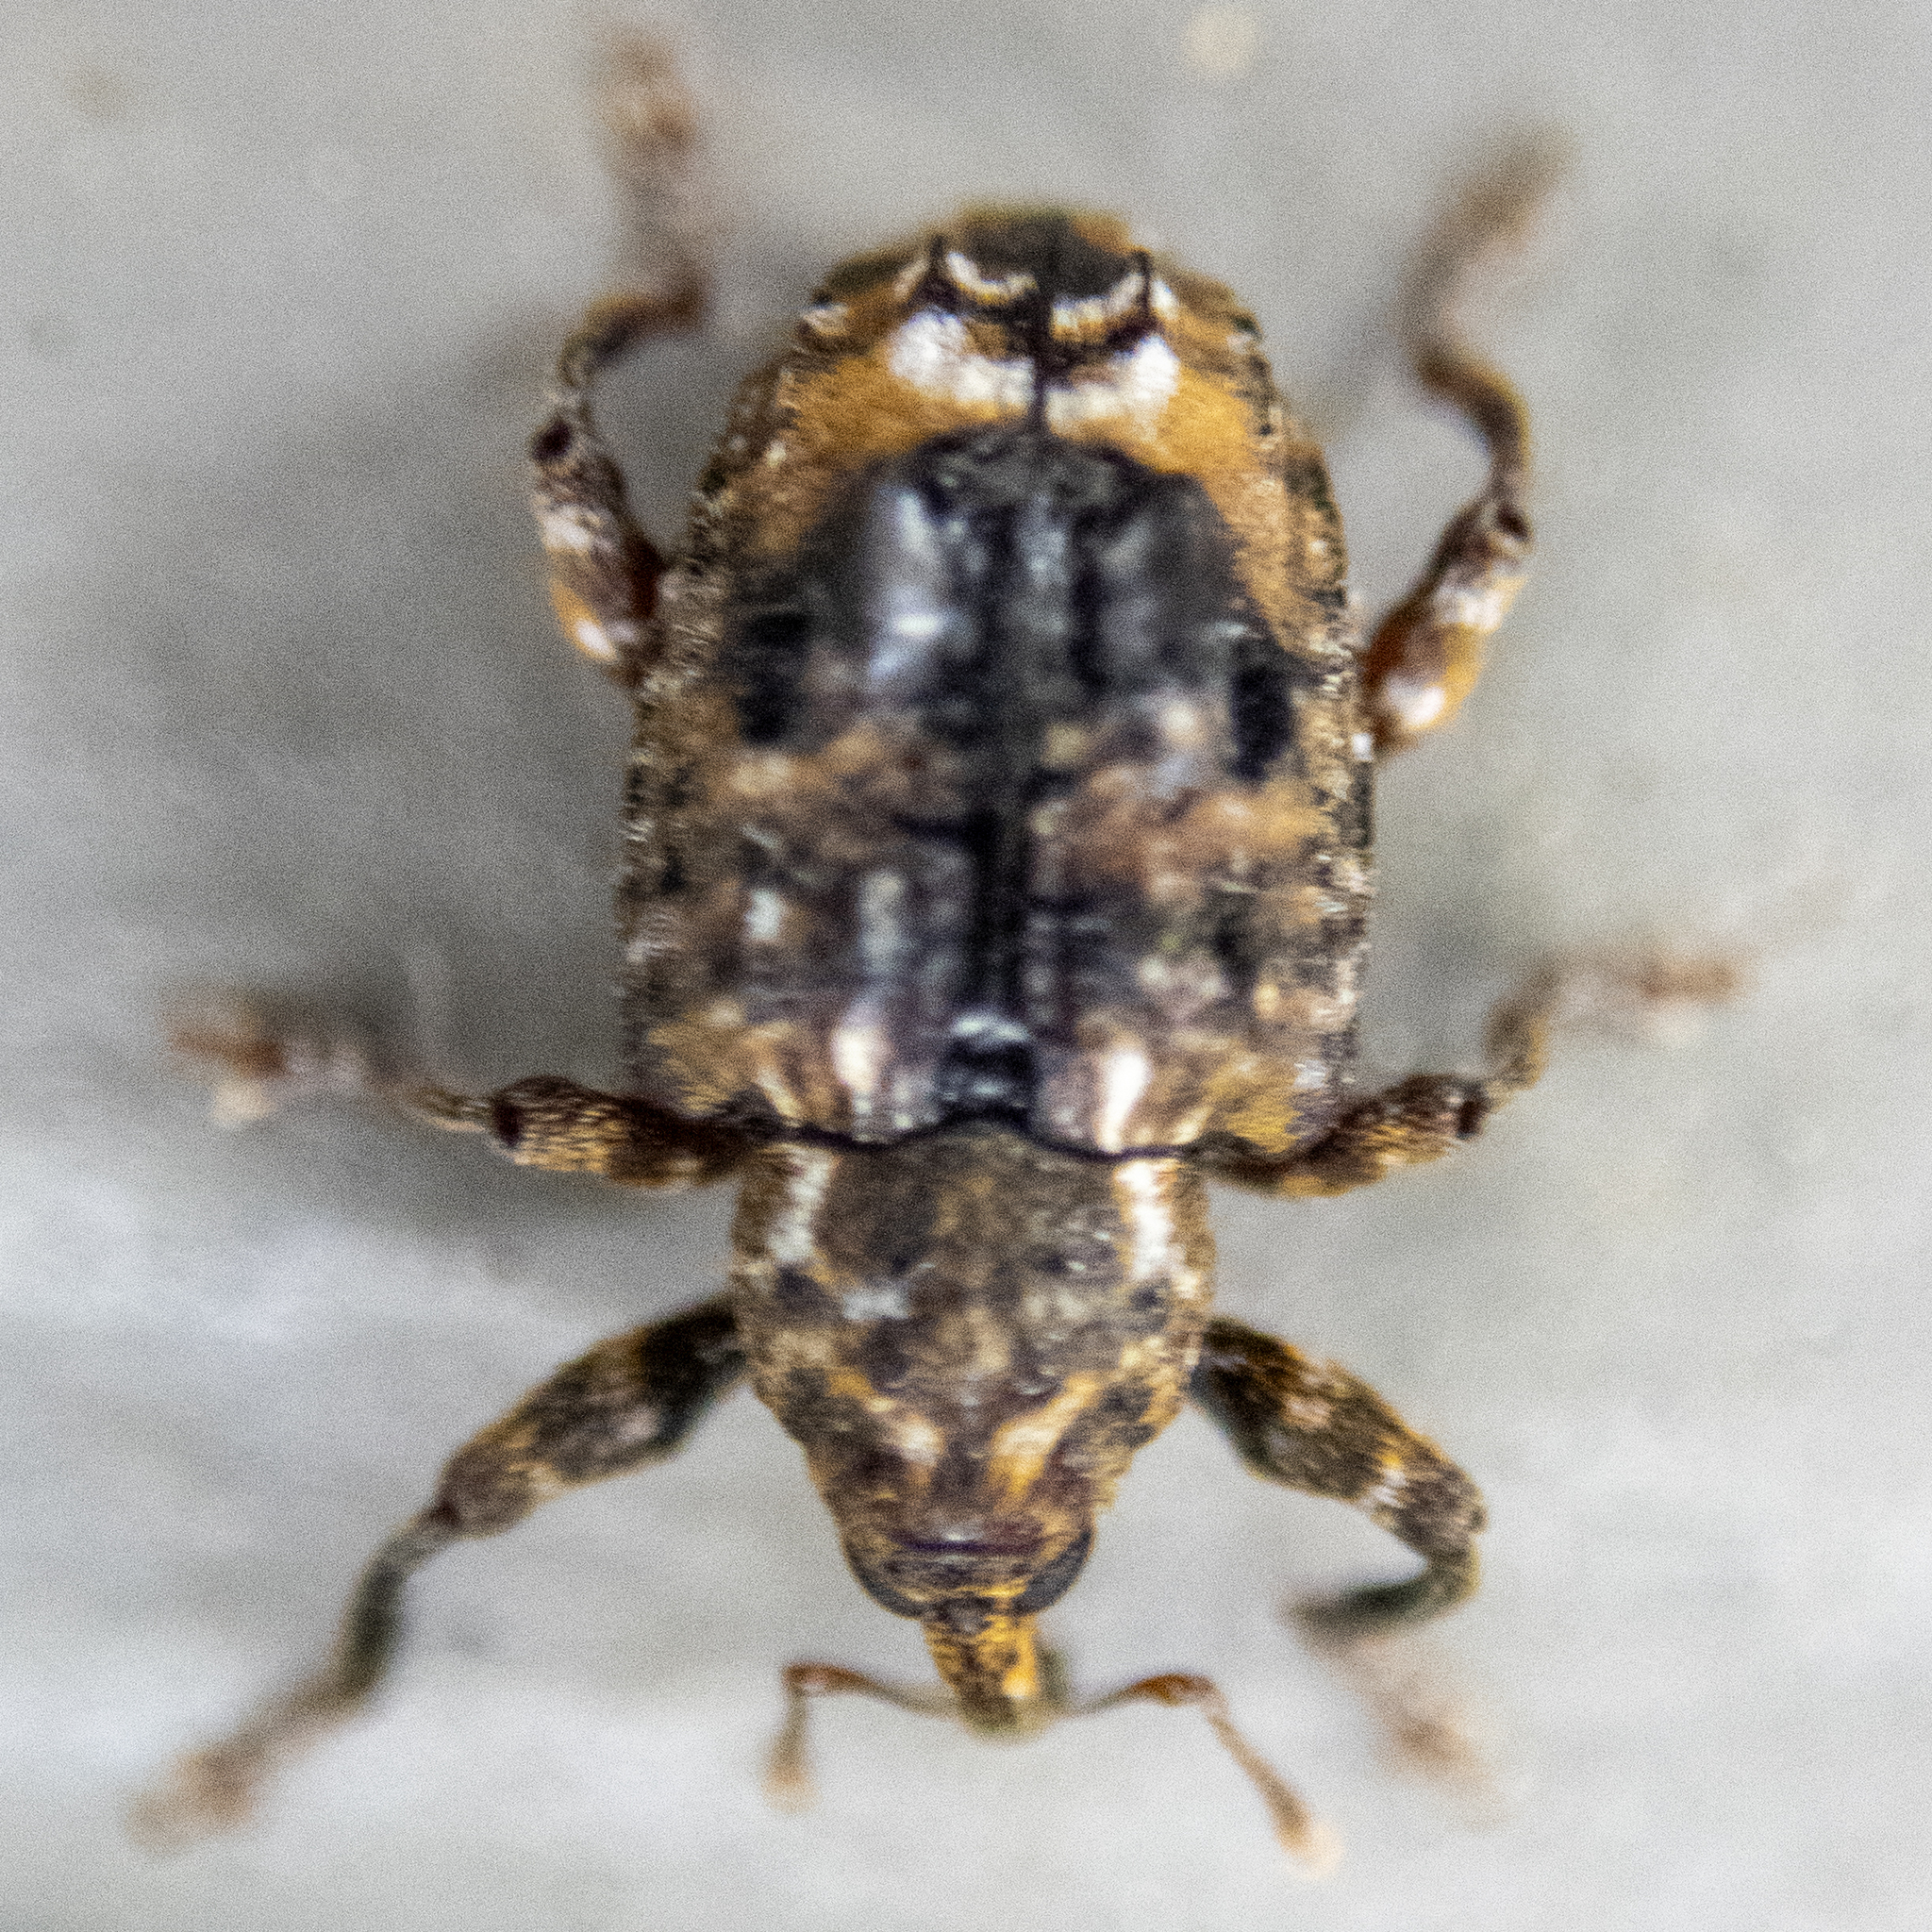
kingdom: Animalia
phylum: Arthropoda
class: Insecta
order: Coleoptera
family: Curculionidae
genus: Conotrachelus
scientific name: Conotrachelus nenuphar
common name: Plum curculio
